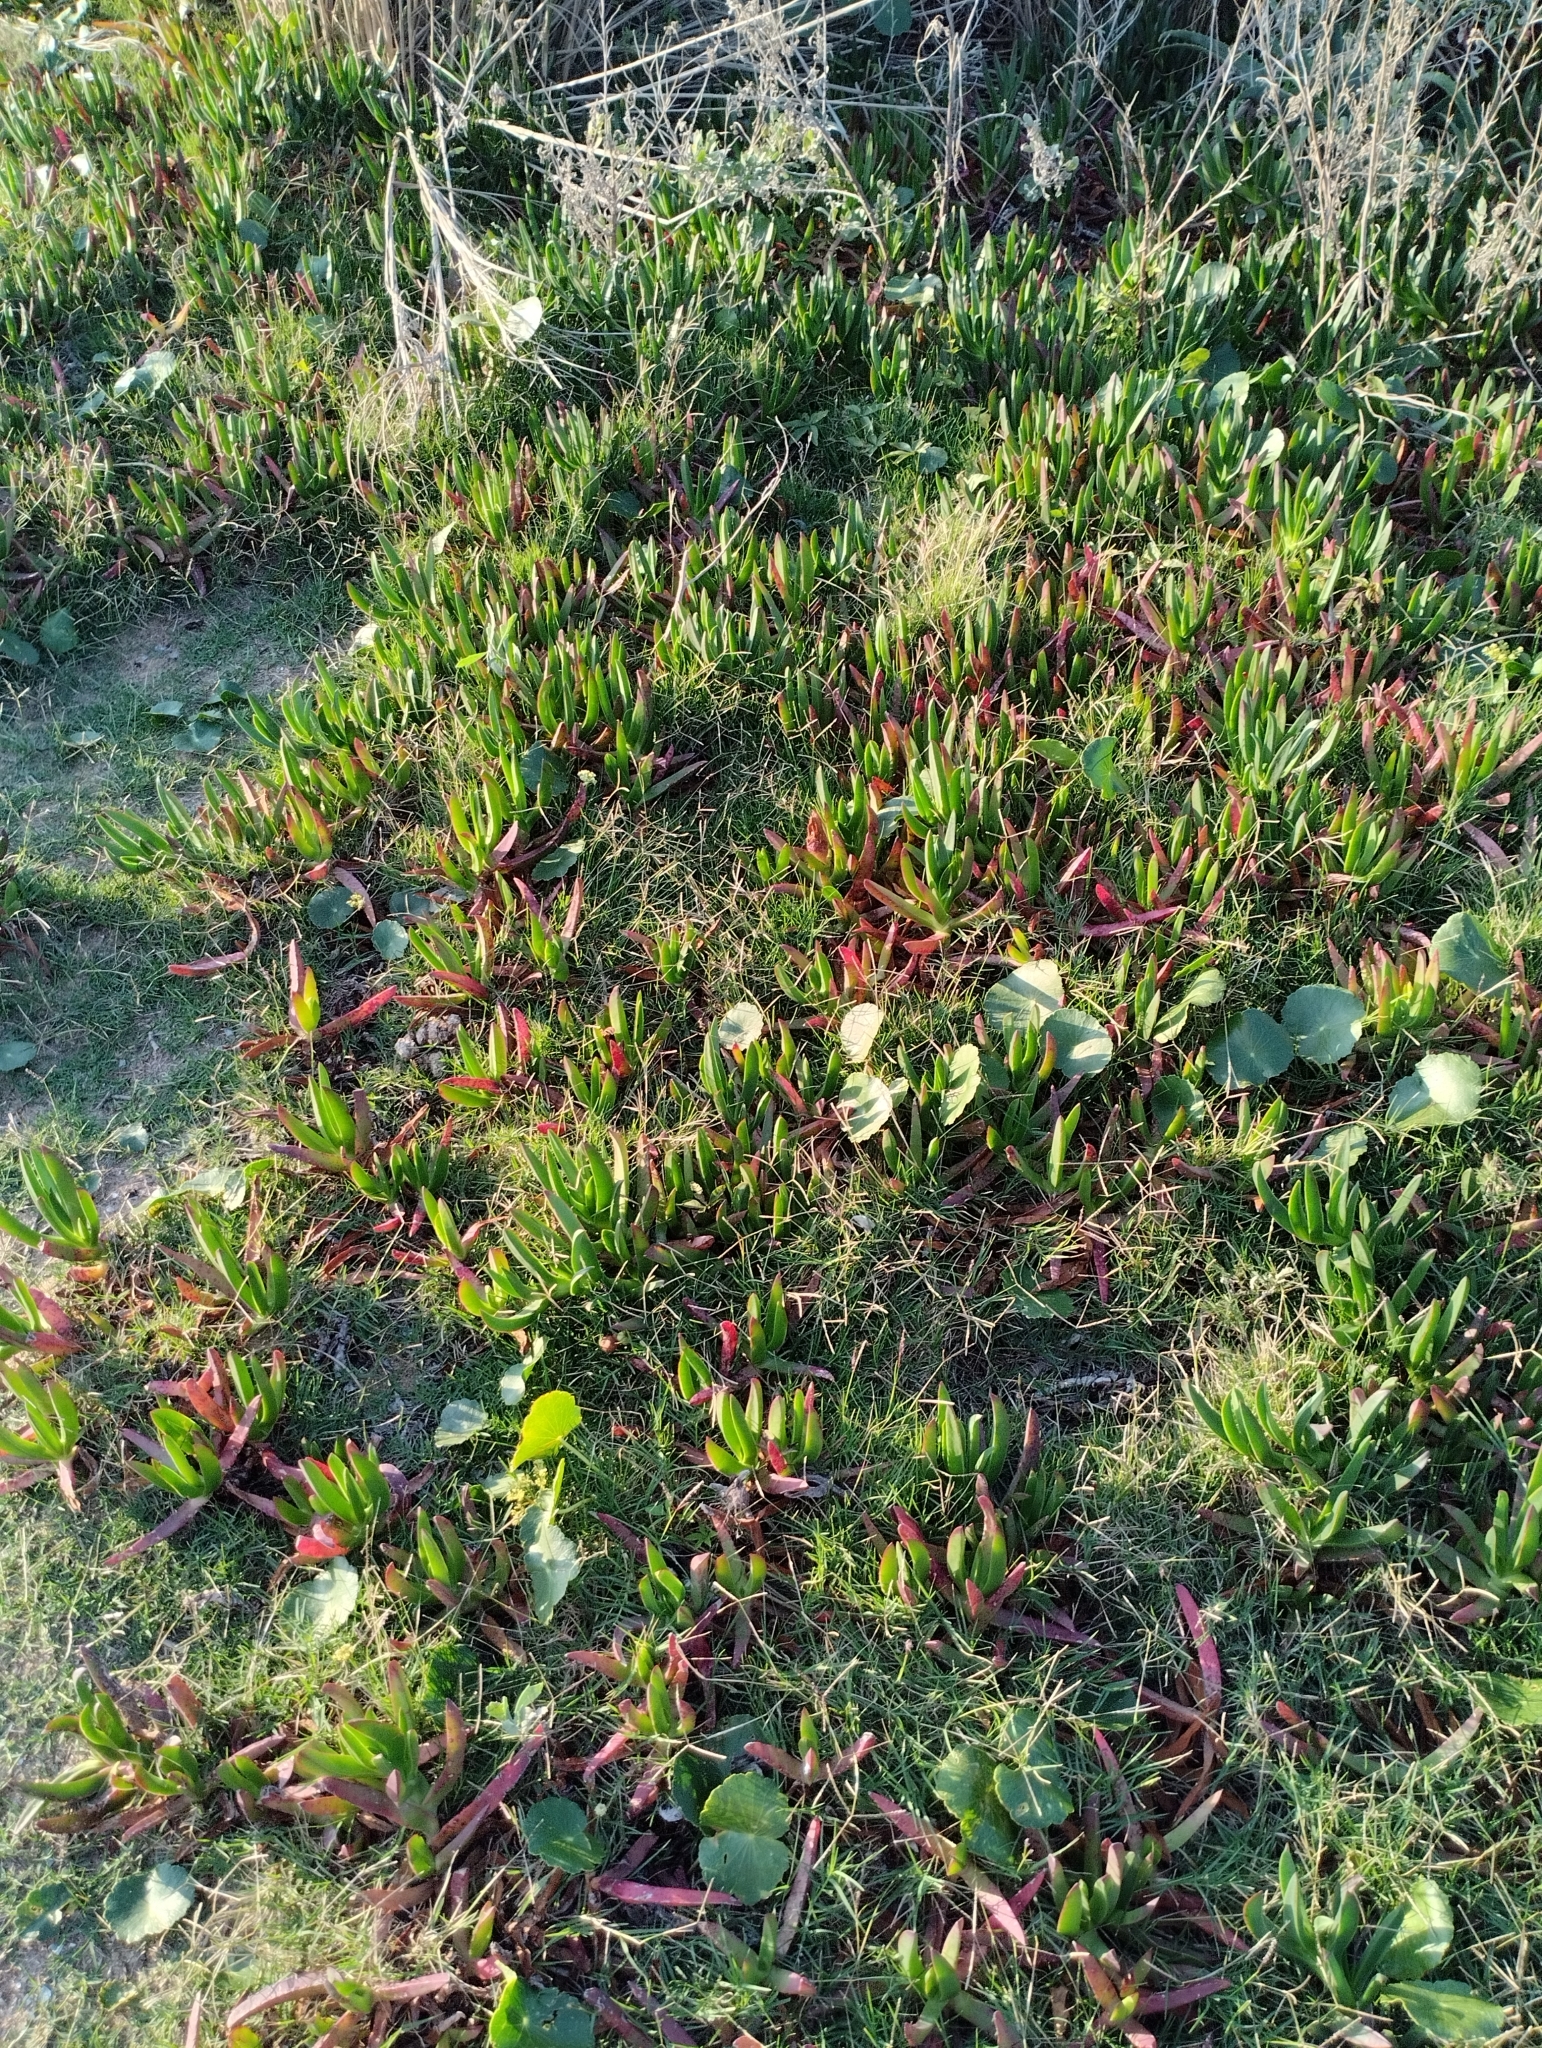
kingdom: Plantae
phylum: Tracheophyta
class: Magnoliopsida
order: Caryophyllales
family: Aizoaceae
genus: Carpobrotus
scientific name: Carpobrotus edulis
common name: Hottentot-fig
